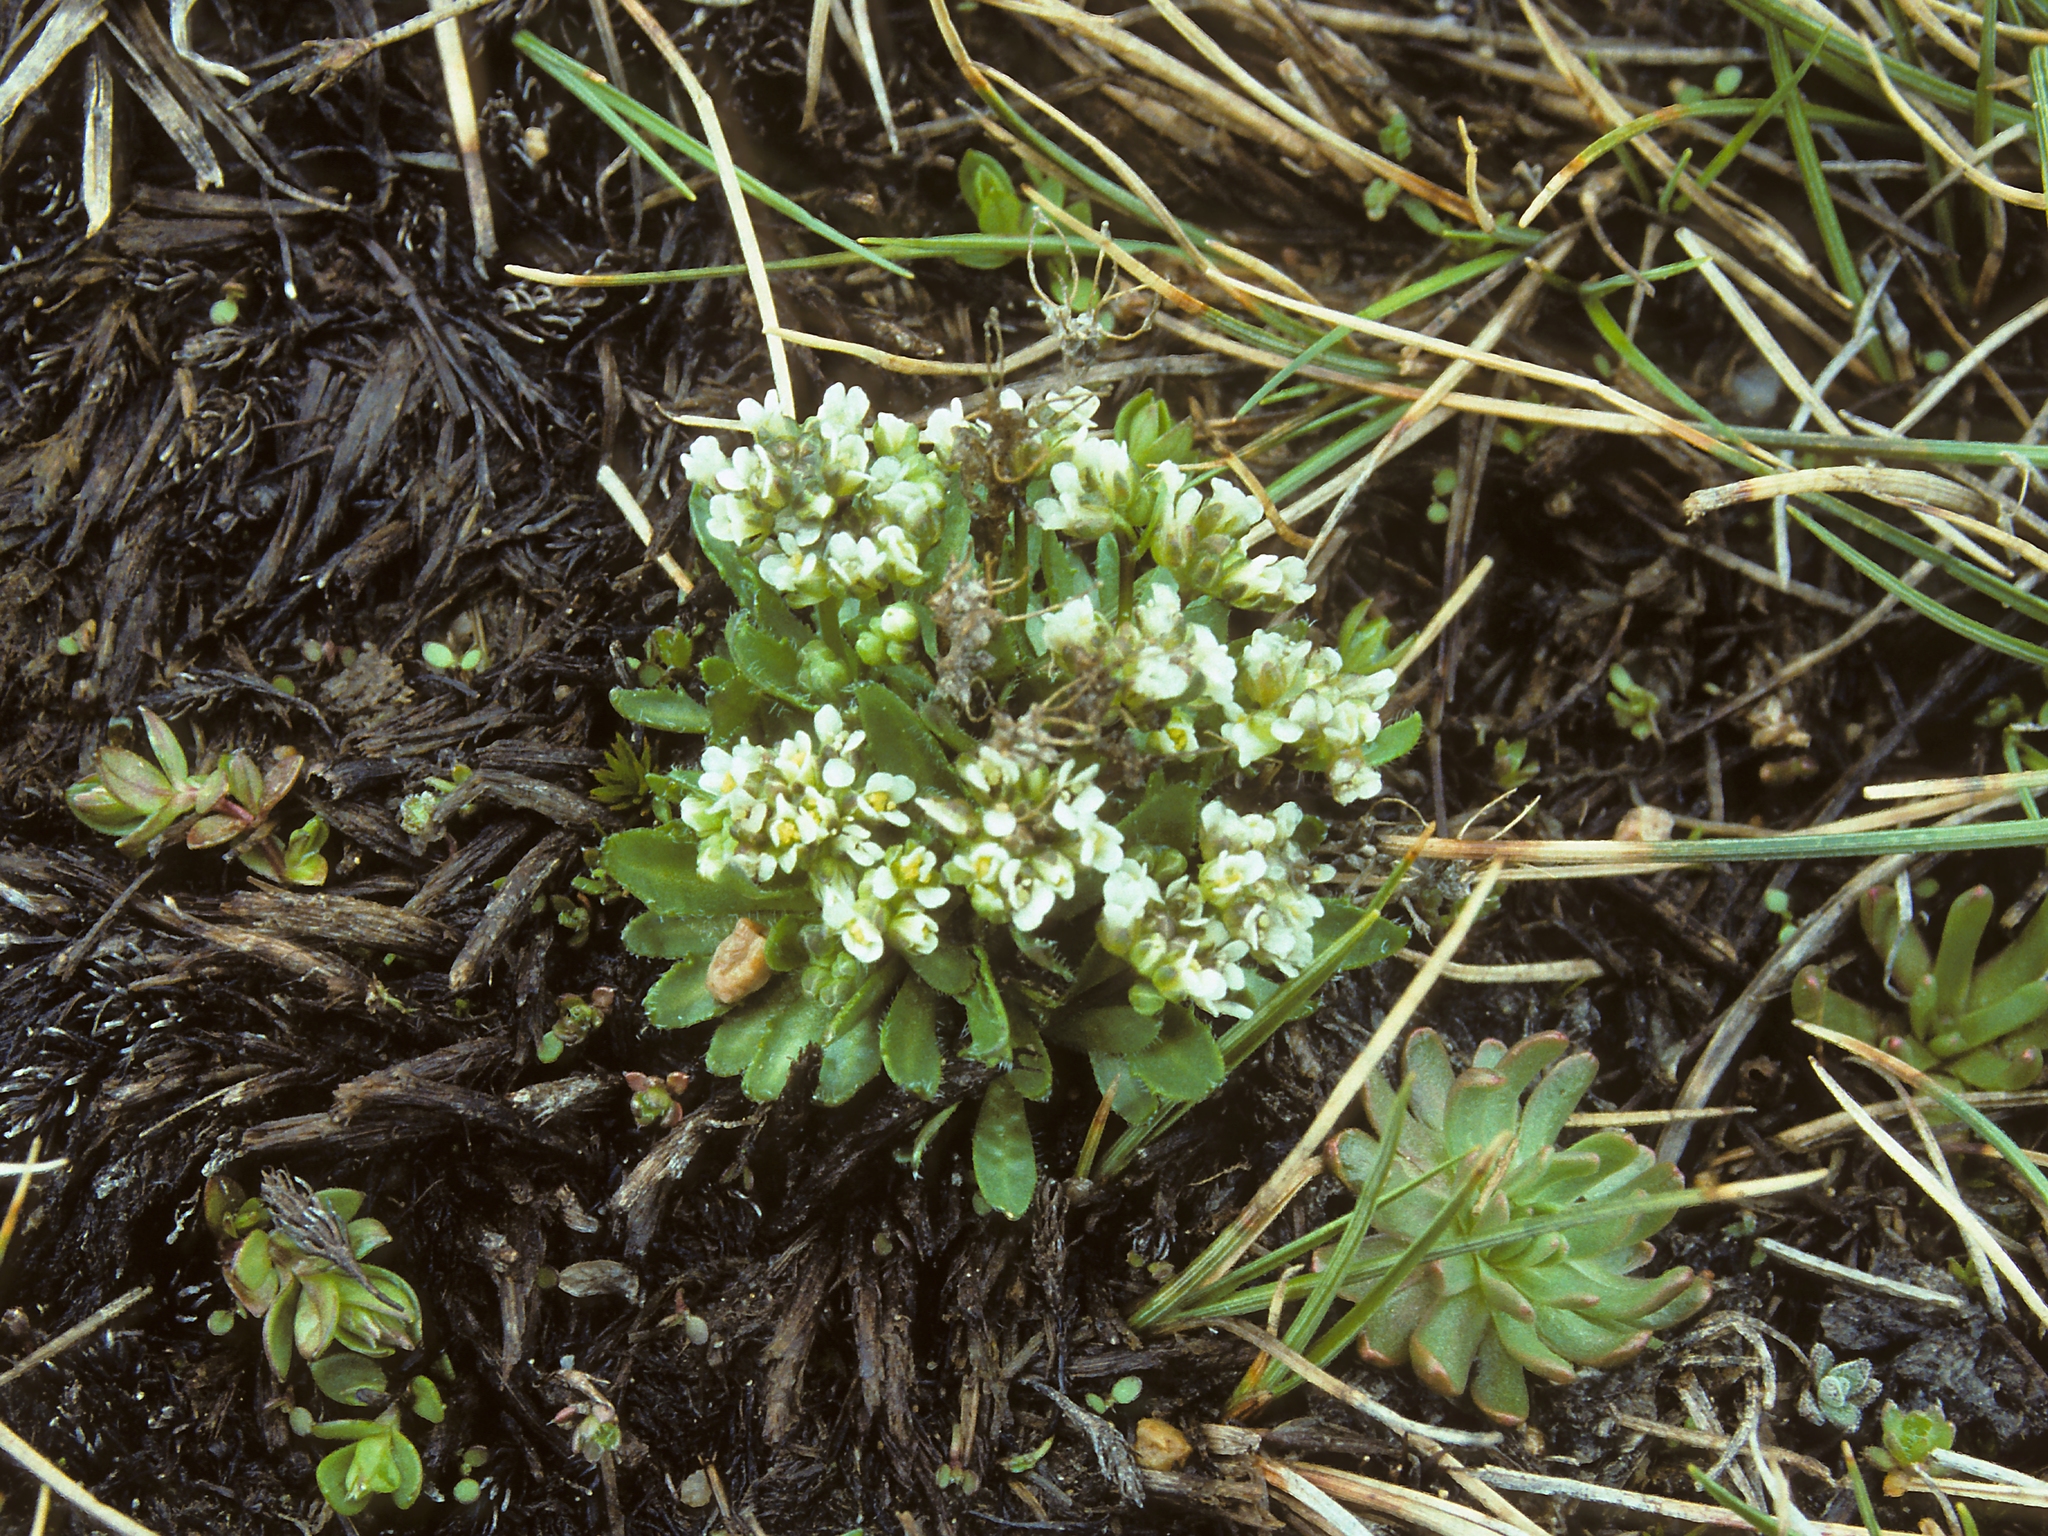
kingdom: Plantae
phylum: Tracheophyta
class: Magnoliopsida
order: Brassicales
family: Brassicaceae
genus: Draba
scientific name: Draba monoensis
